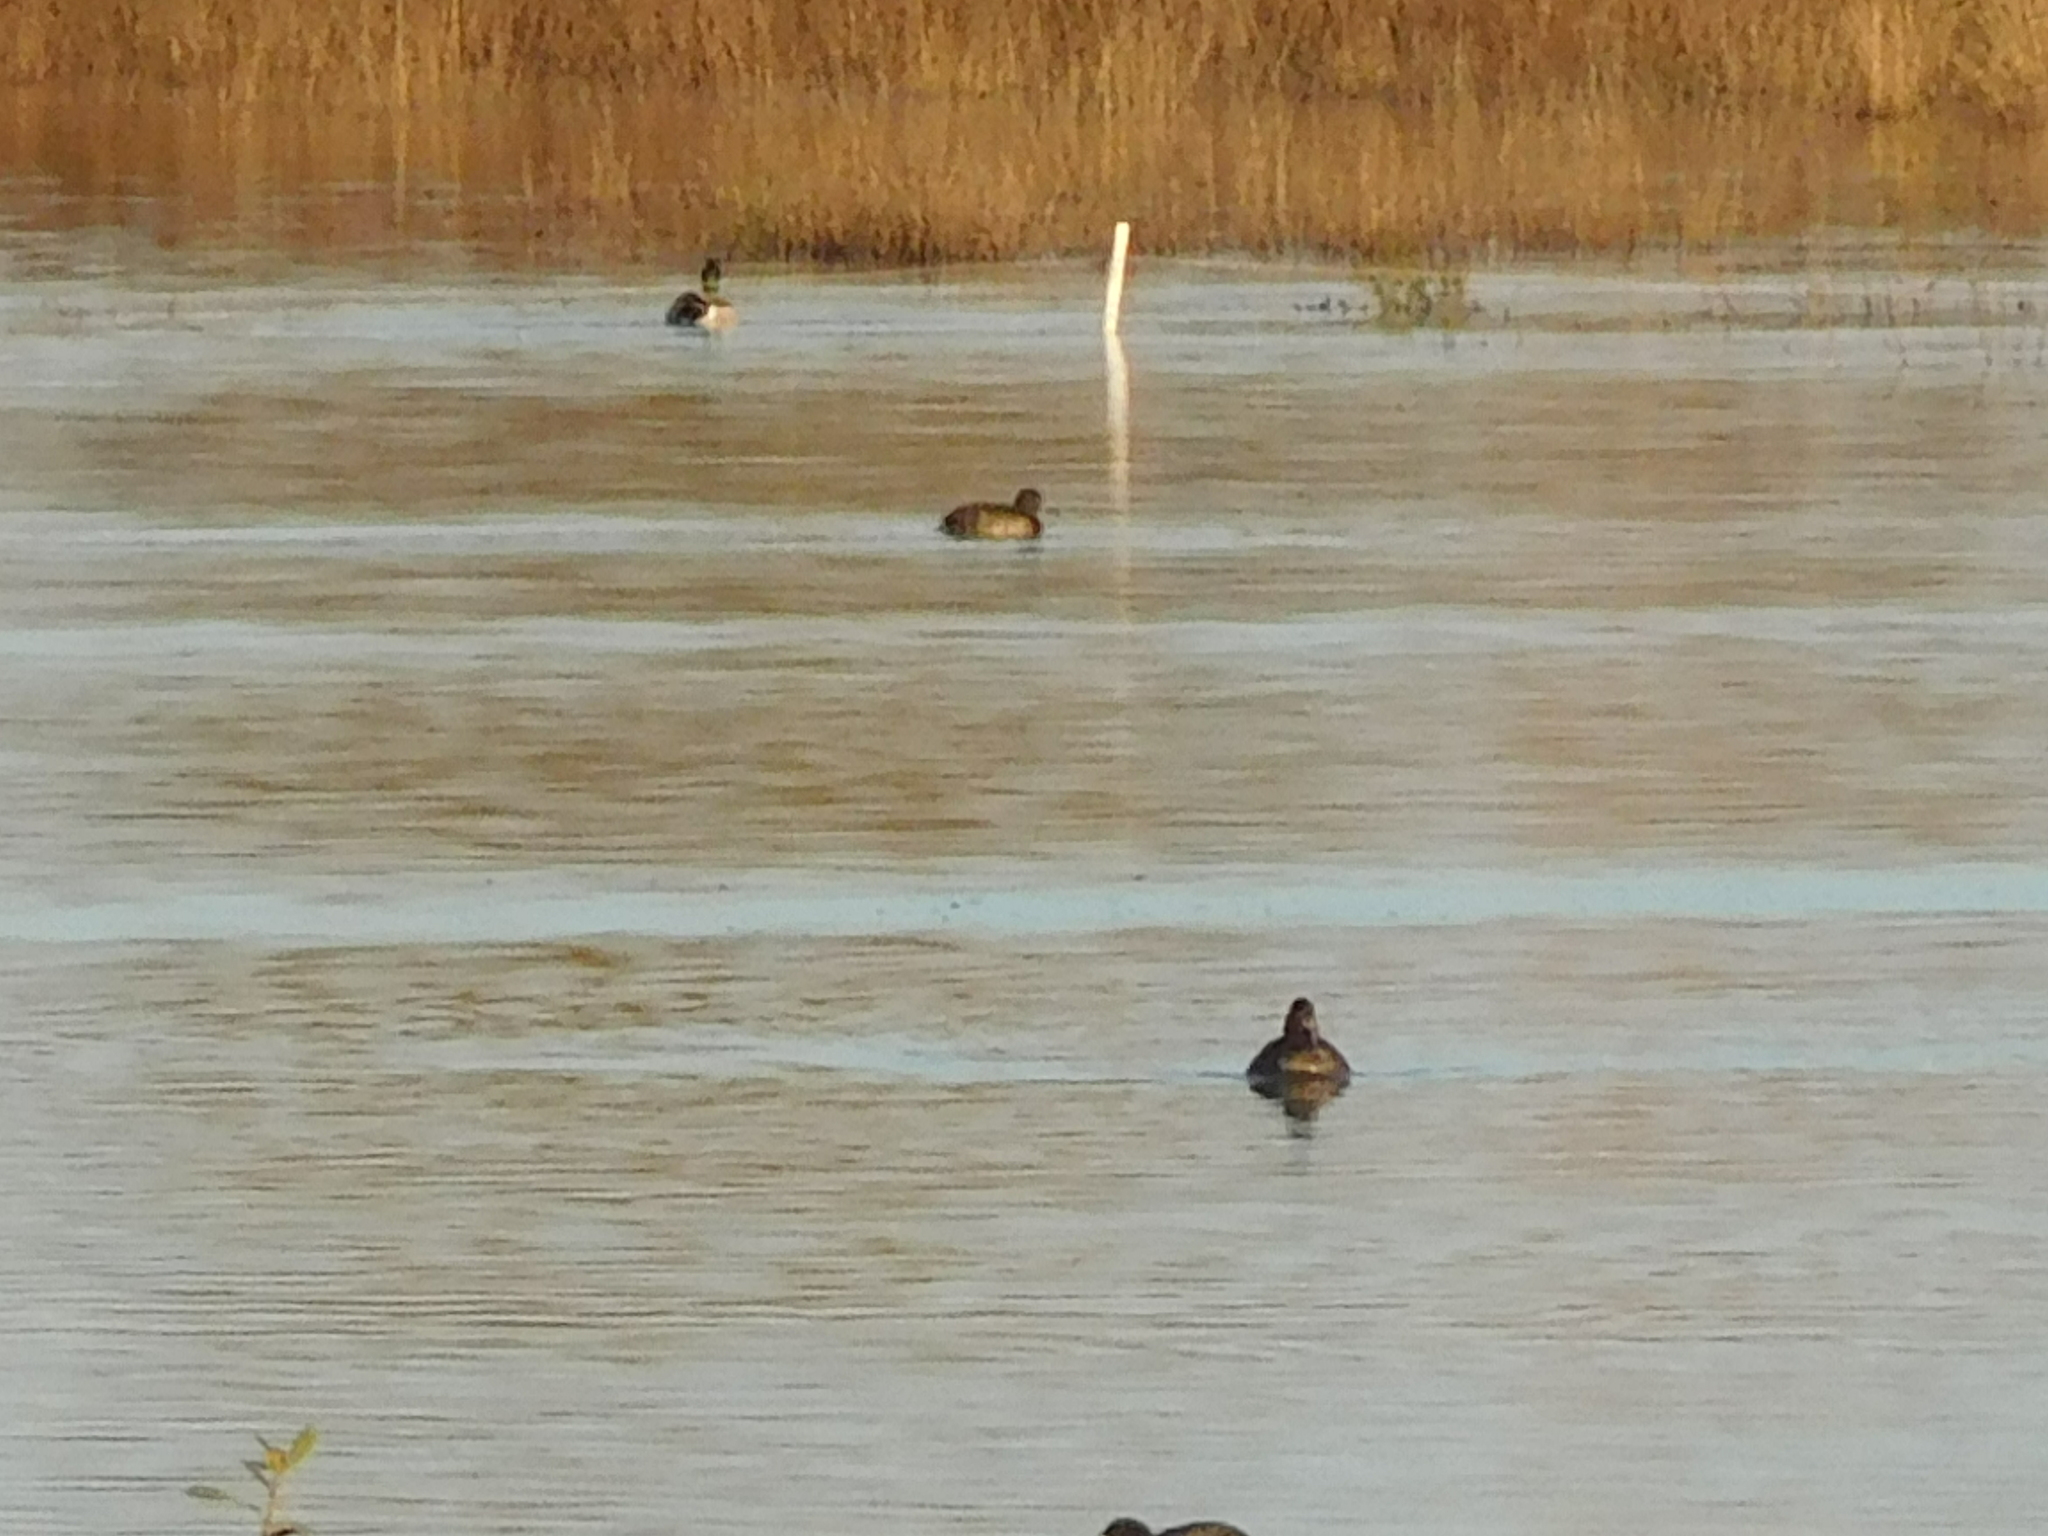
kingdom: Animalia
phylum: Chordata
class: Aves
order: Anseriformes
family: Anatidae
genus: Aythya
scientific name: Aythya fuligula
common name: Tufted duck
